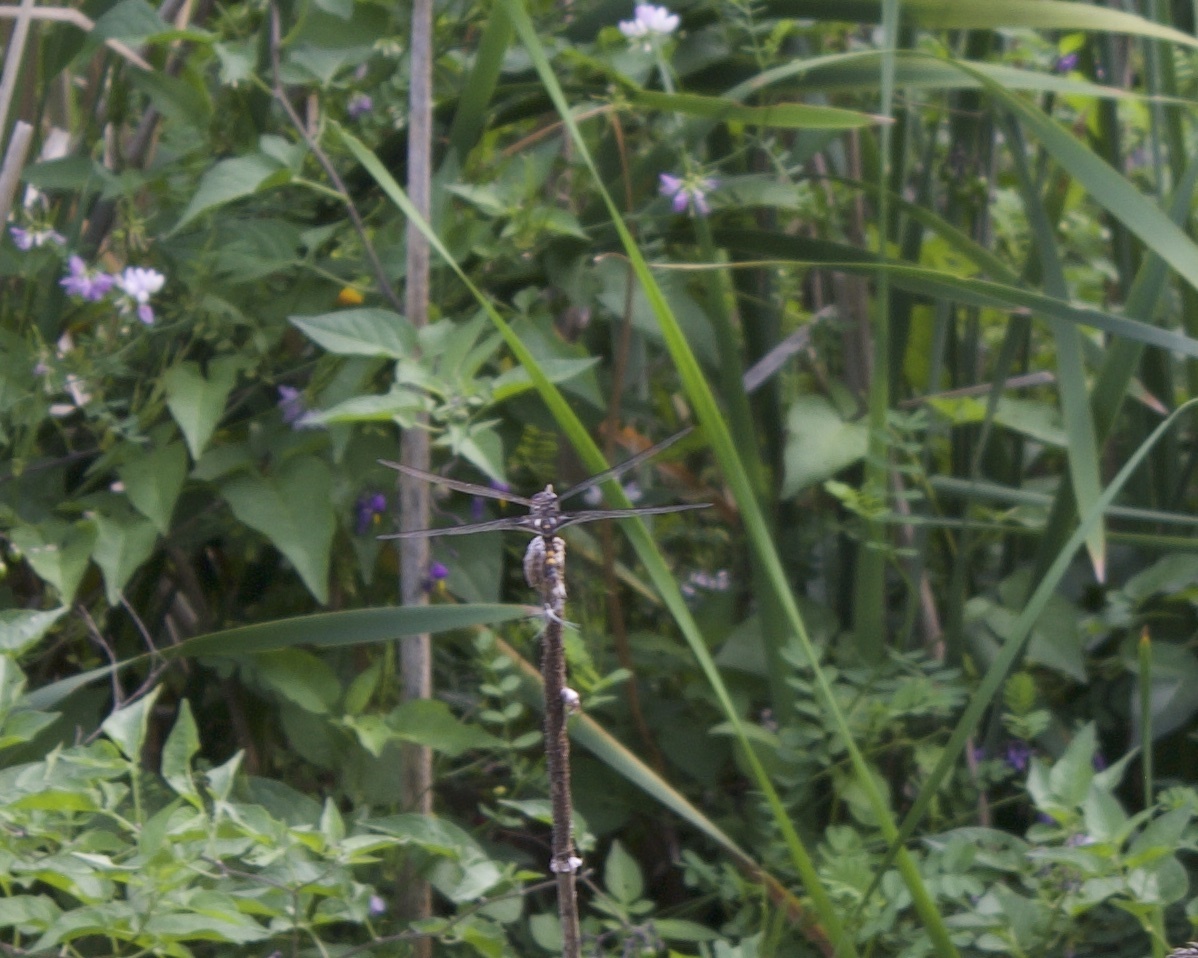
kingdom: Animalia
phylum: Arthropoda
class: Insecta
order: Odonata
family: Libellulidae
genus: Tramea
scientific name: Tramea lacerata
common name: Black saddlebags
